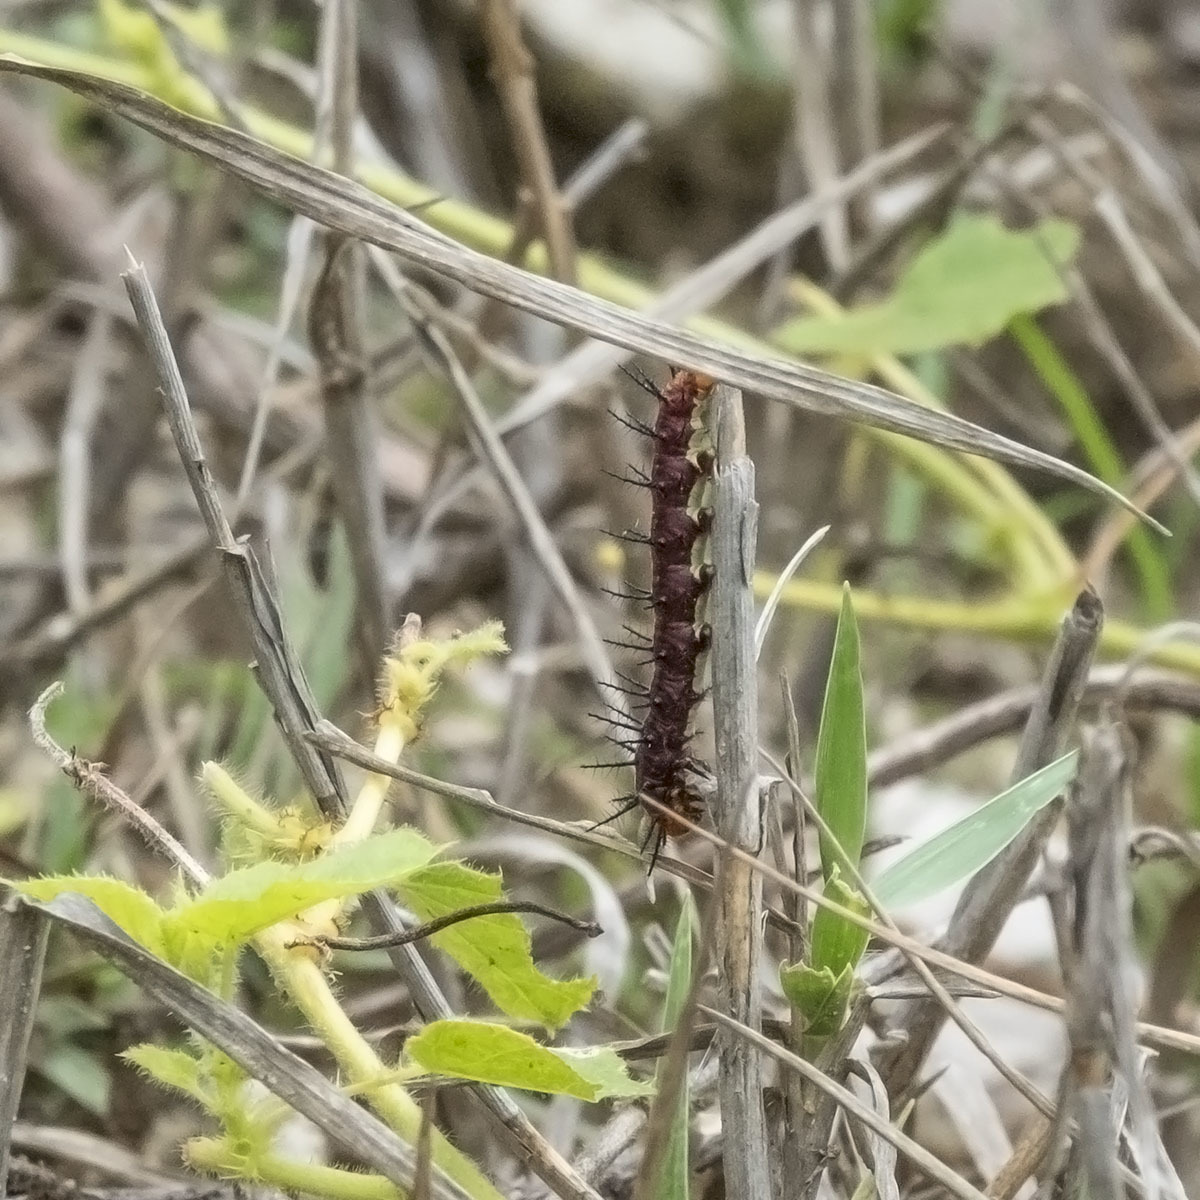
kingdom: Animalia
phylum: Arthropoda
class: Insecta
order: Lepidoptera
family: Nymphalidae
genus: Acraea
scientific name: Acraea terpsicore
